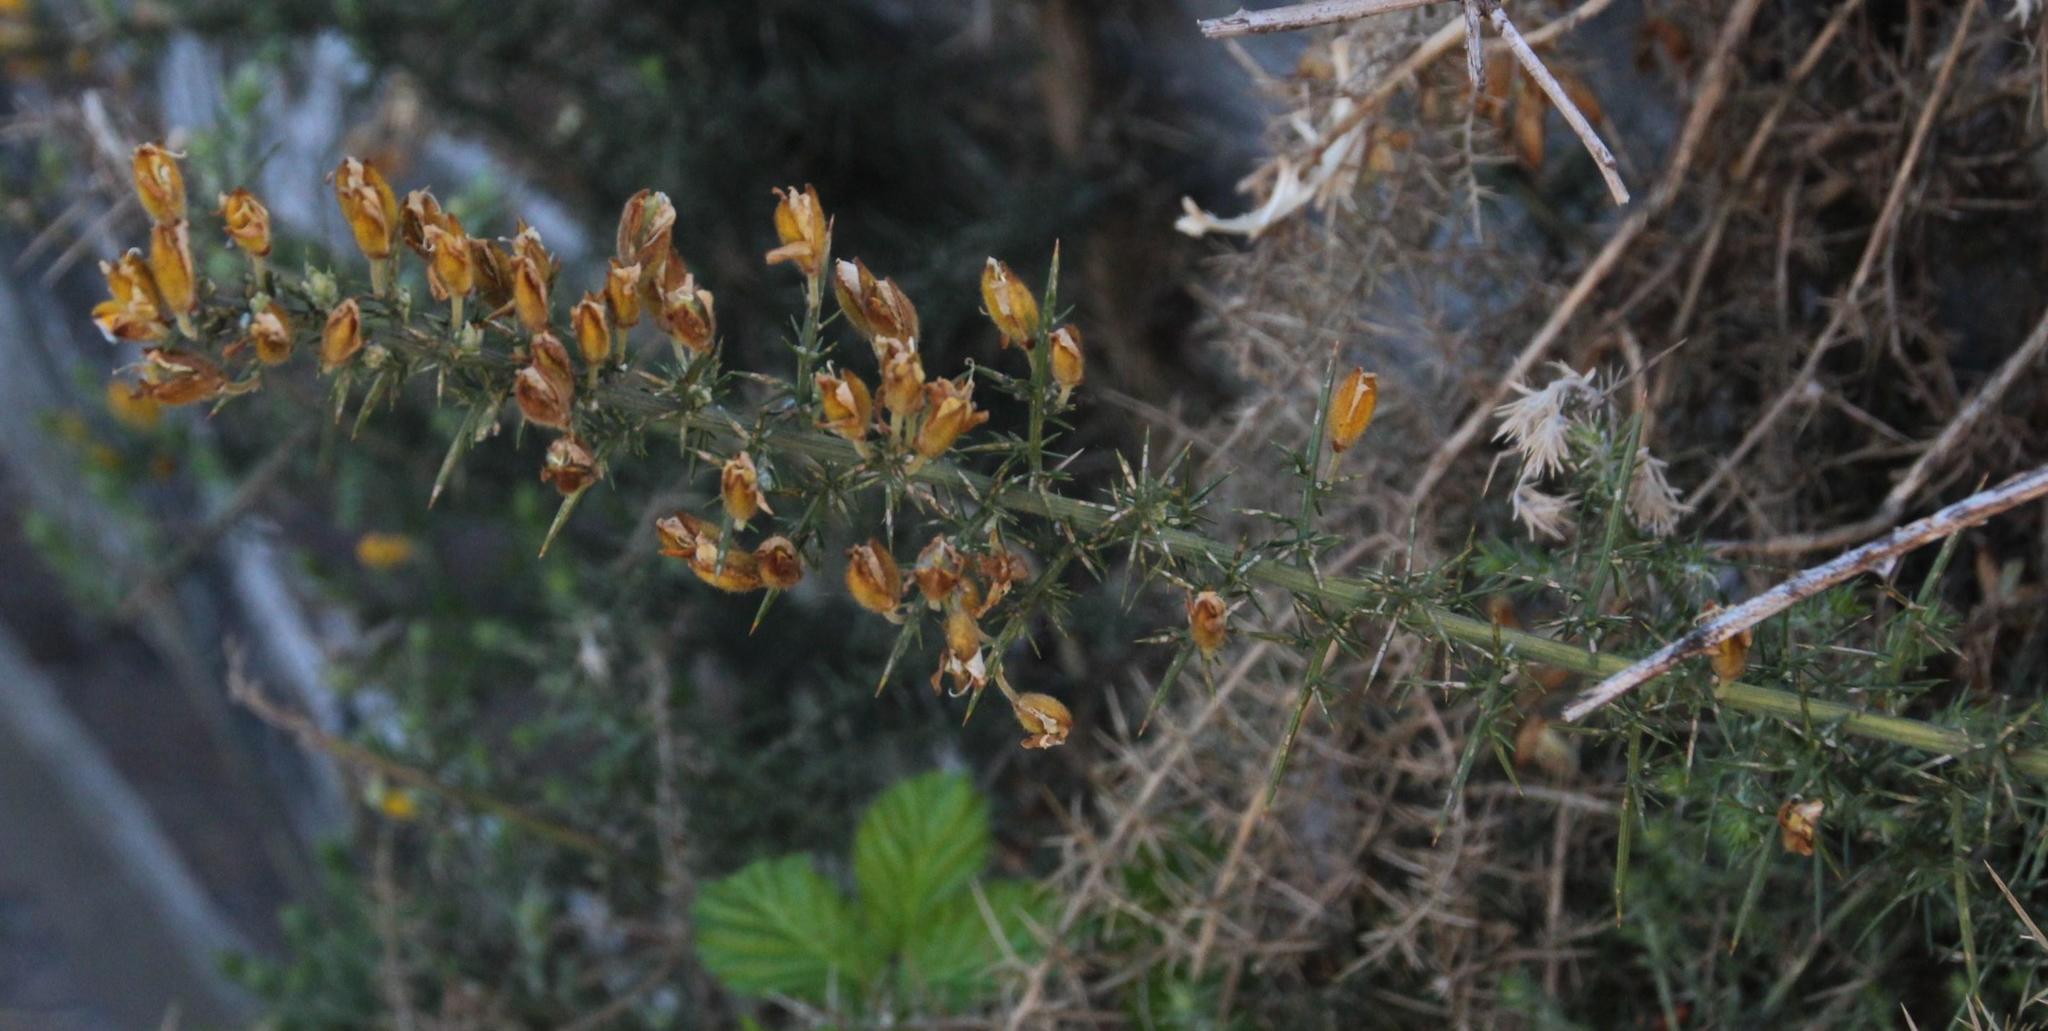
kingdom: Plantae
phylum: Tracheophyta
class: Magnoliopsida
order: Fabales
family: Fabaceae
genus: Ulex
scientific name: Ulex europaeus
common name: Common gorse
